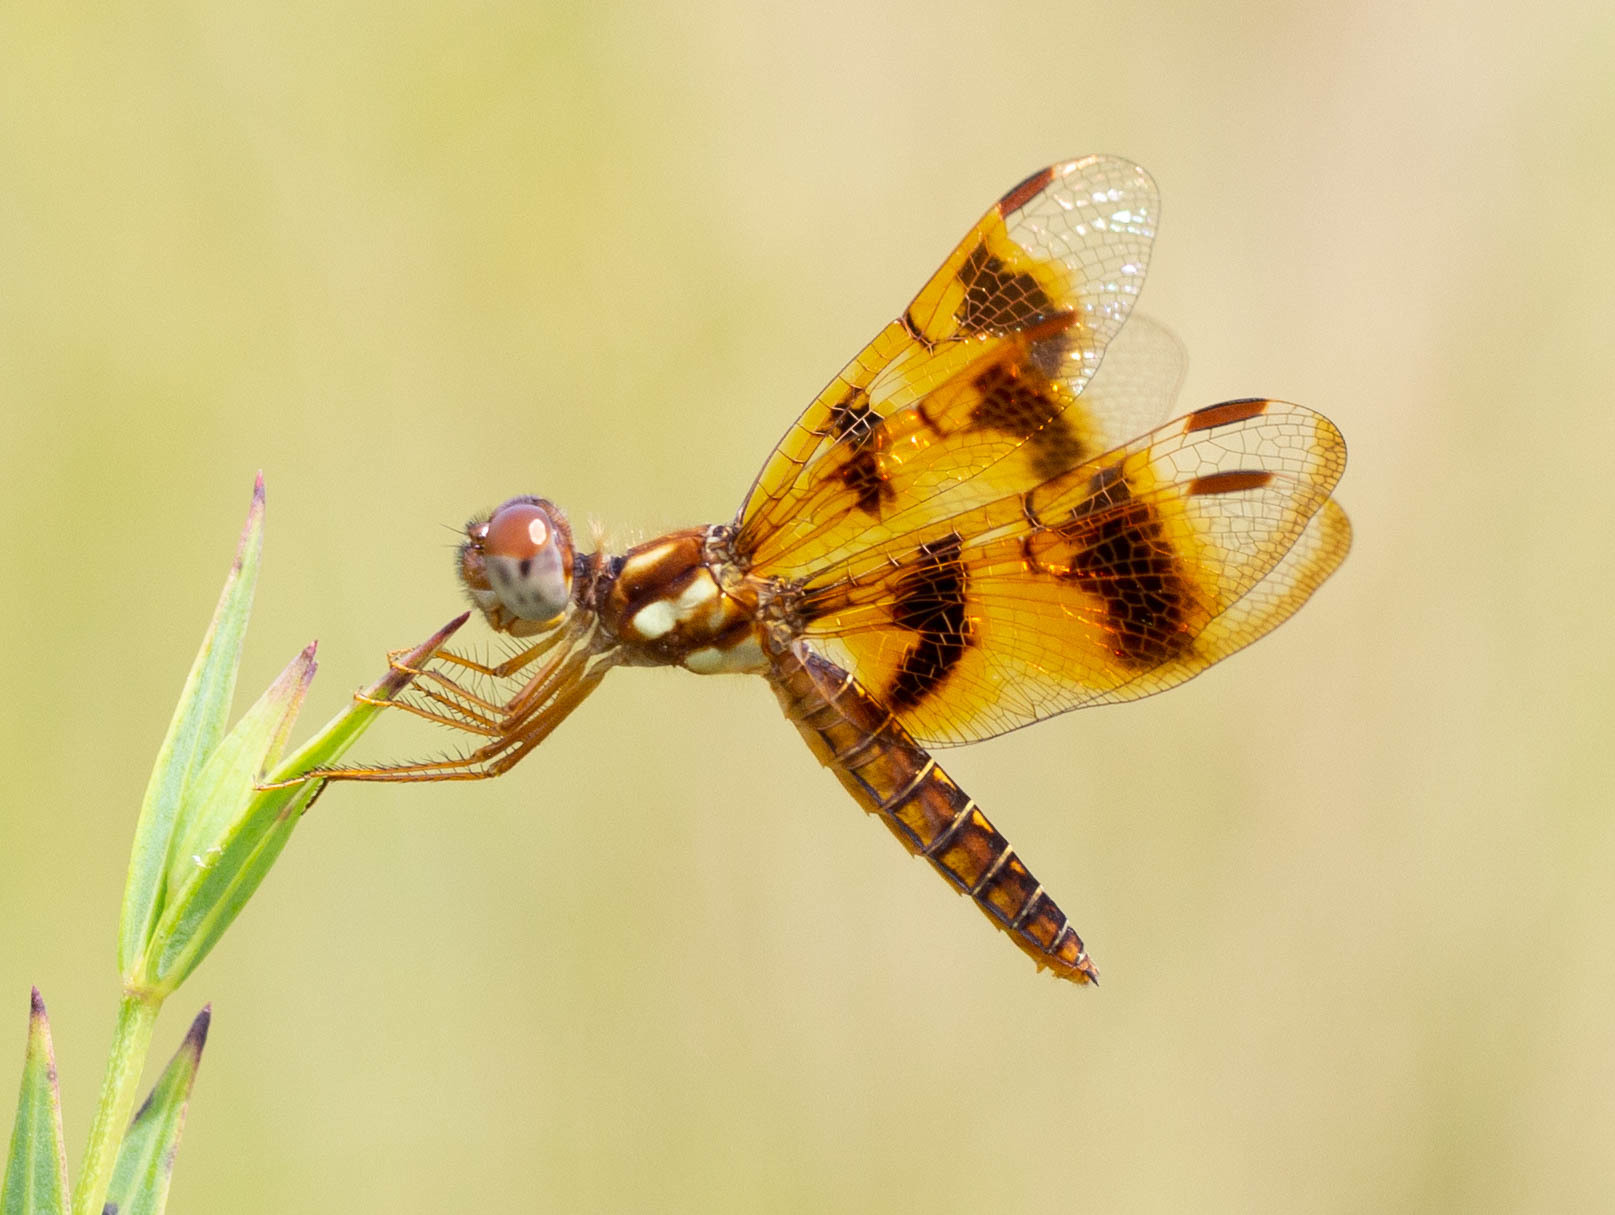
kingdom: Animalia
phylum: Arthropoda
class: Insecta
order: Odonata
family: Libellulidae
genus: Perithemis
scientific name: Perithemis tenera
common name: Eastern amberwing
